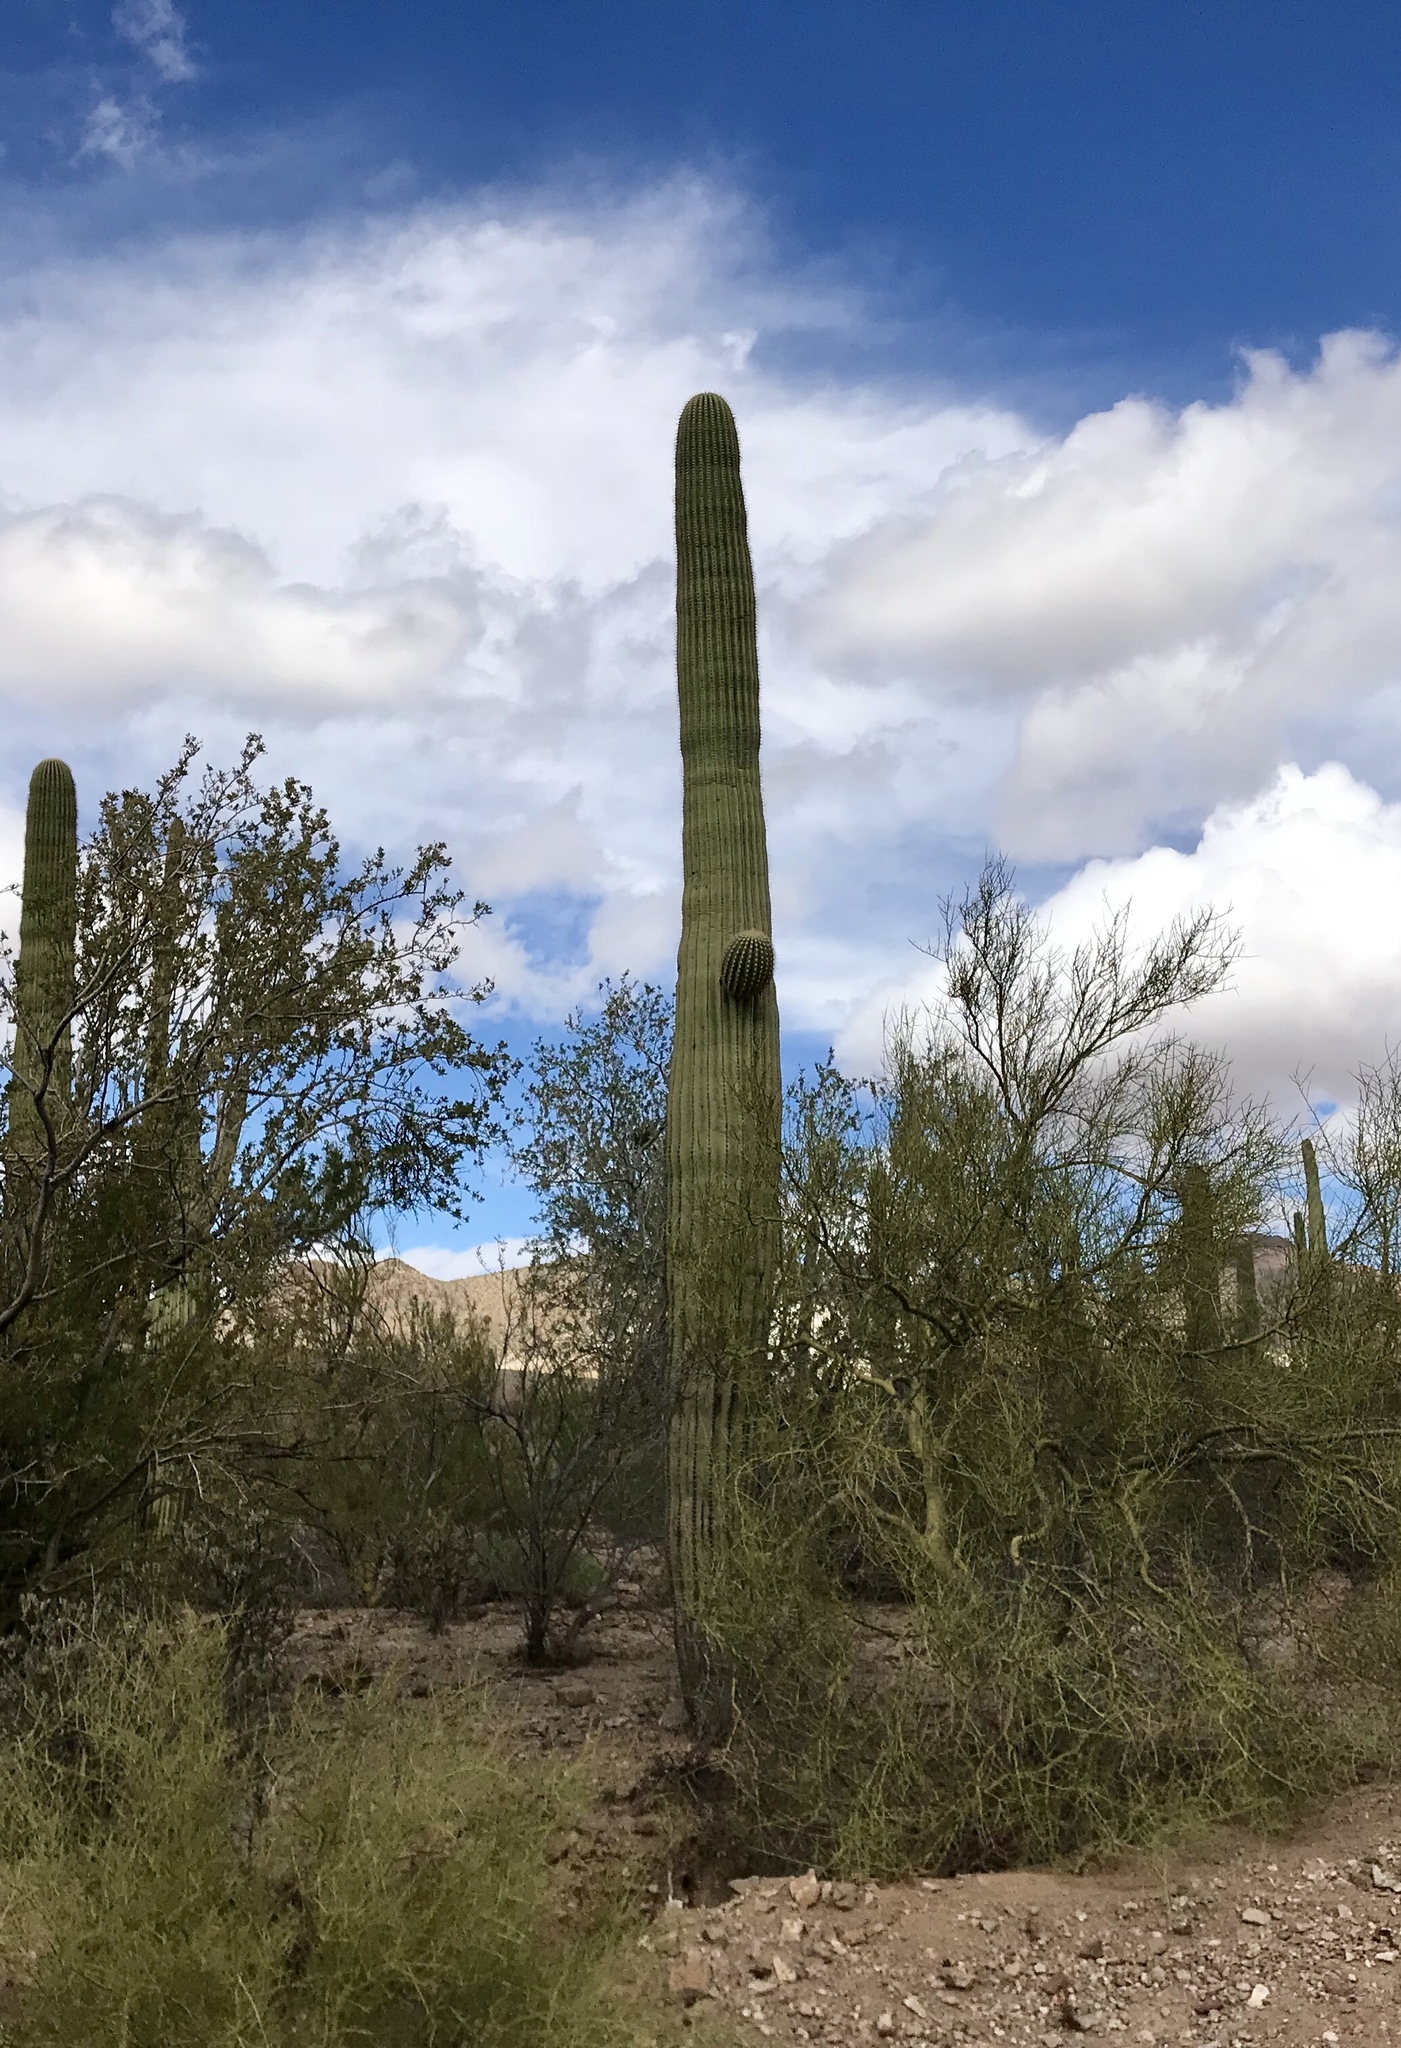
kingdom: Plantae
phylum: Tracheophyta
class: Magnoliopsida
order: Caryophyllales
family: Cactaceae
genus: Carnegiea
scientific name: Carnegiea gigantea
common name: Saguaro
